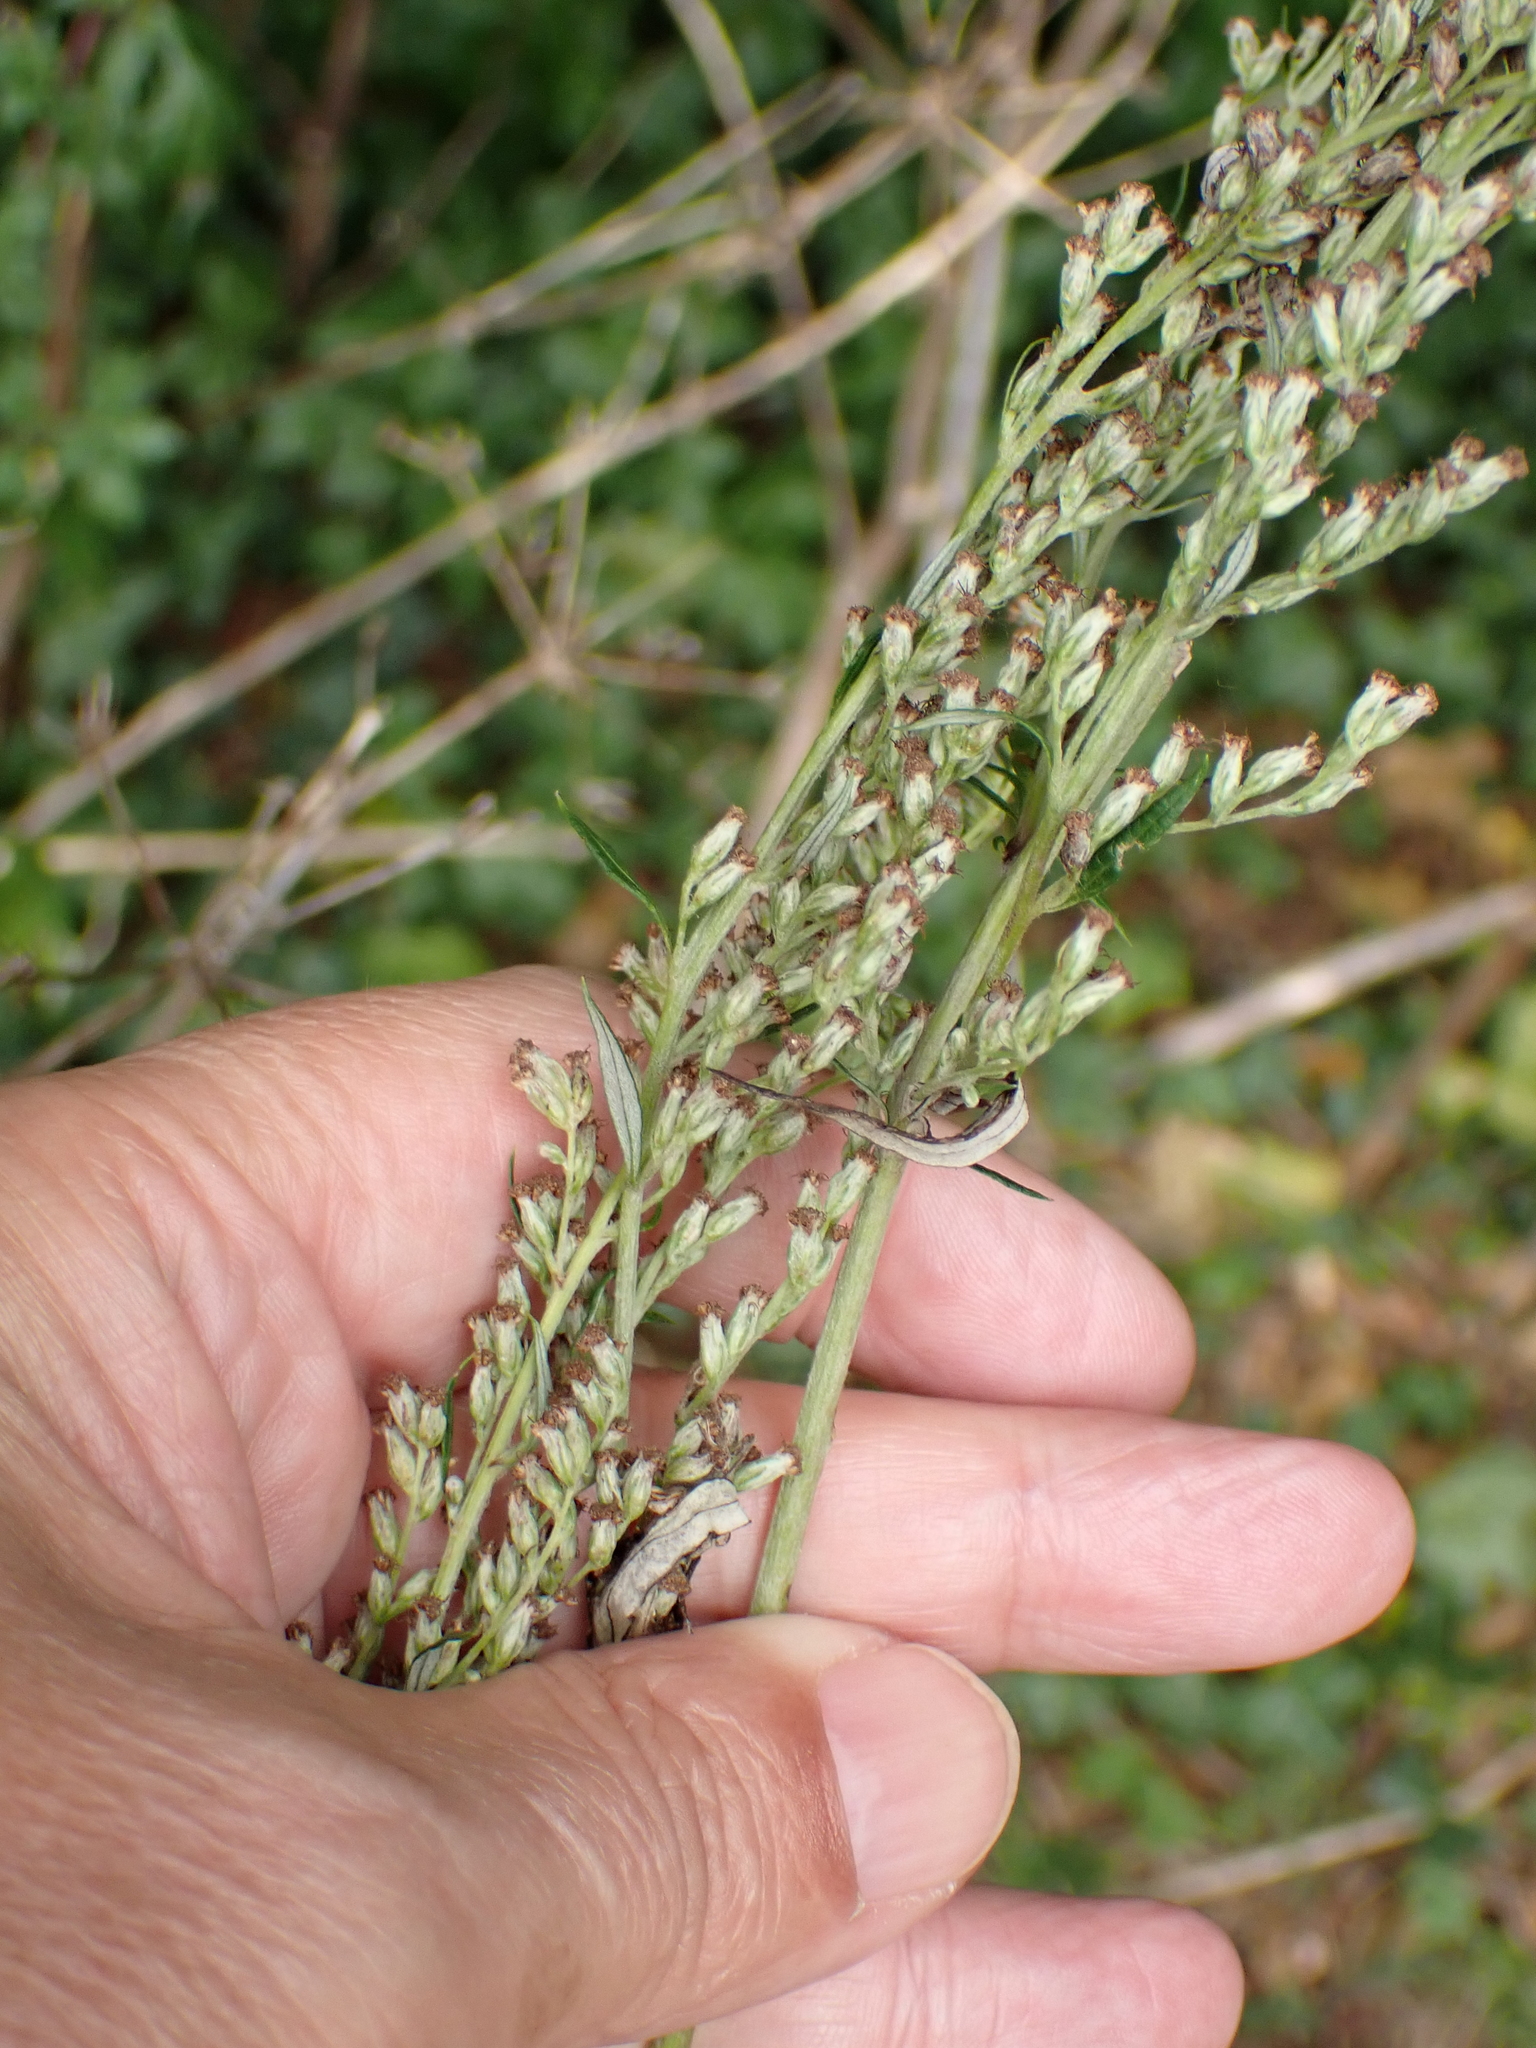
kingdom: Plantae
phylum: Tracheophyta
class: Magnoliopsida
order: Asterales
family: Asteraceae
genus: Artemisia
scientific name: Artemisia vulgaris
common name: Mugwort
